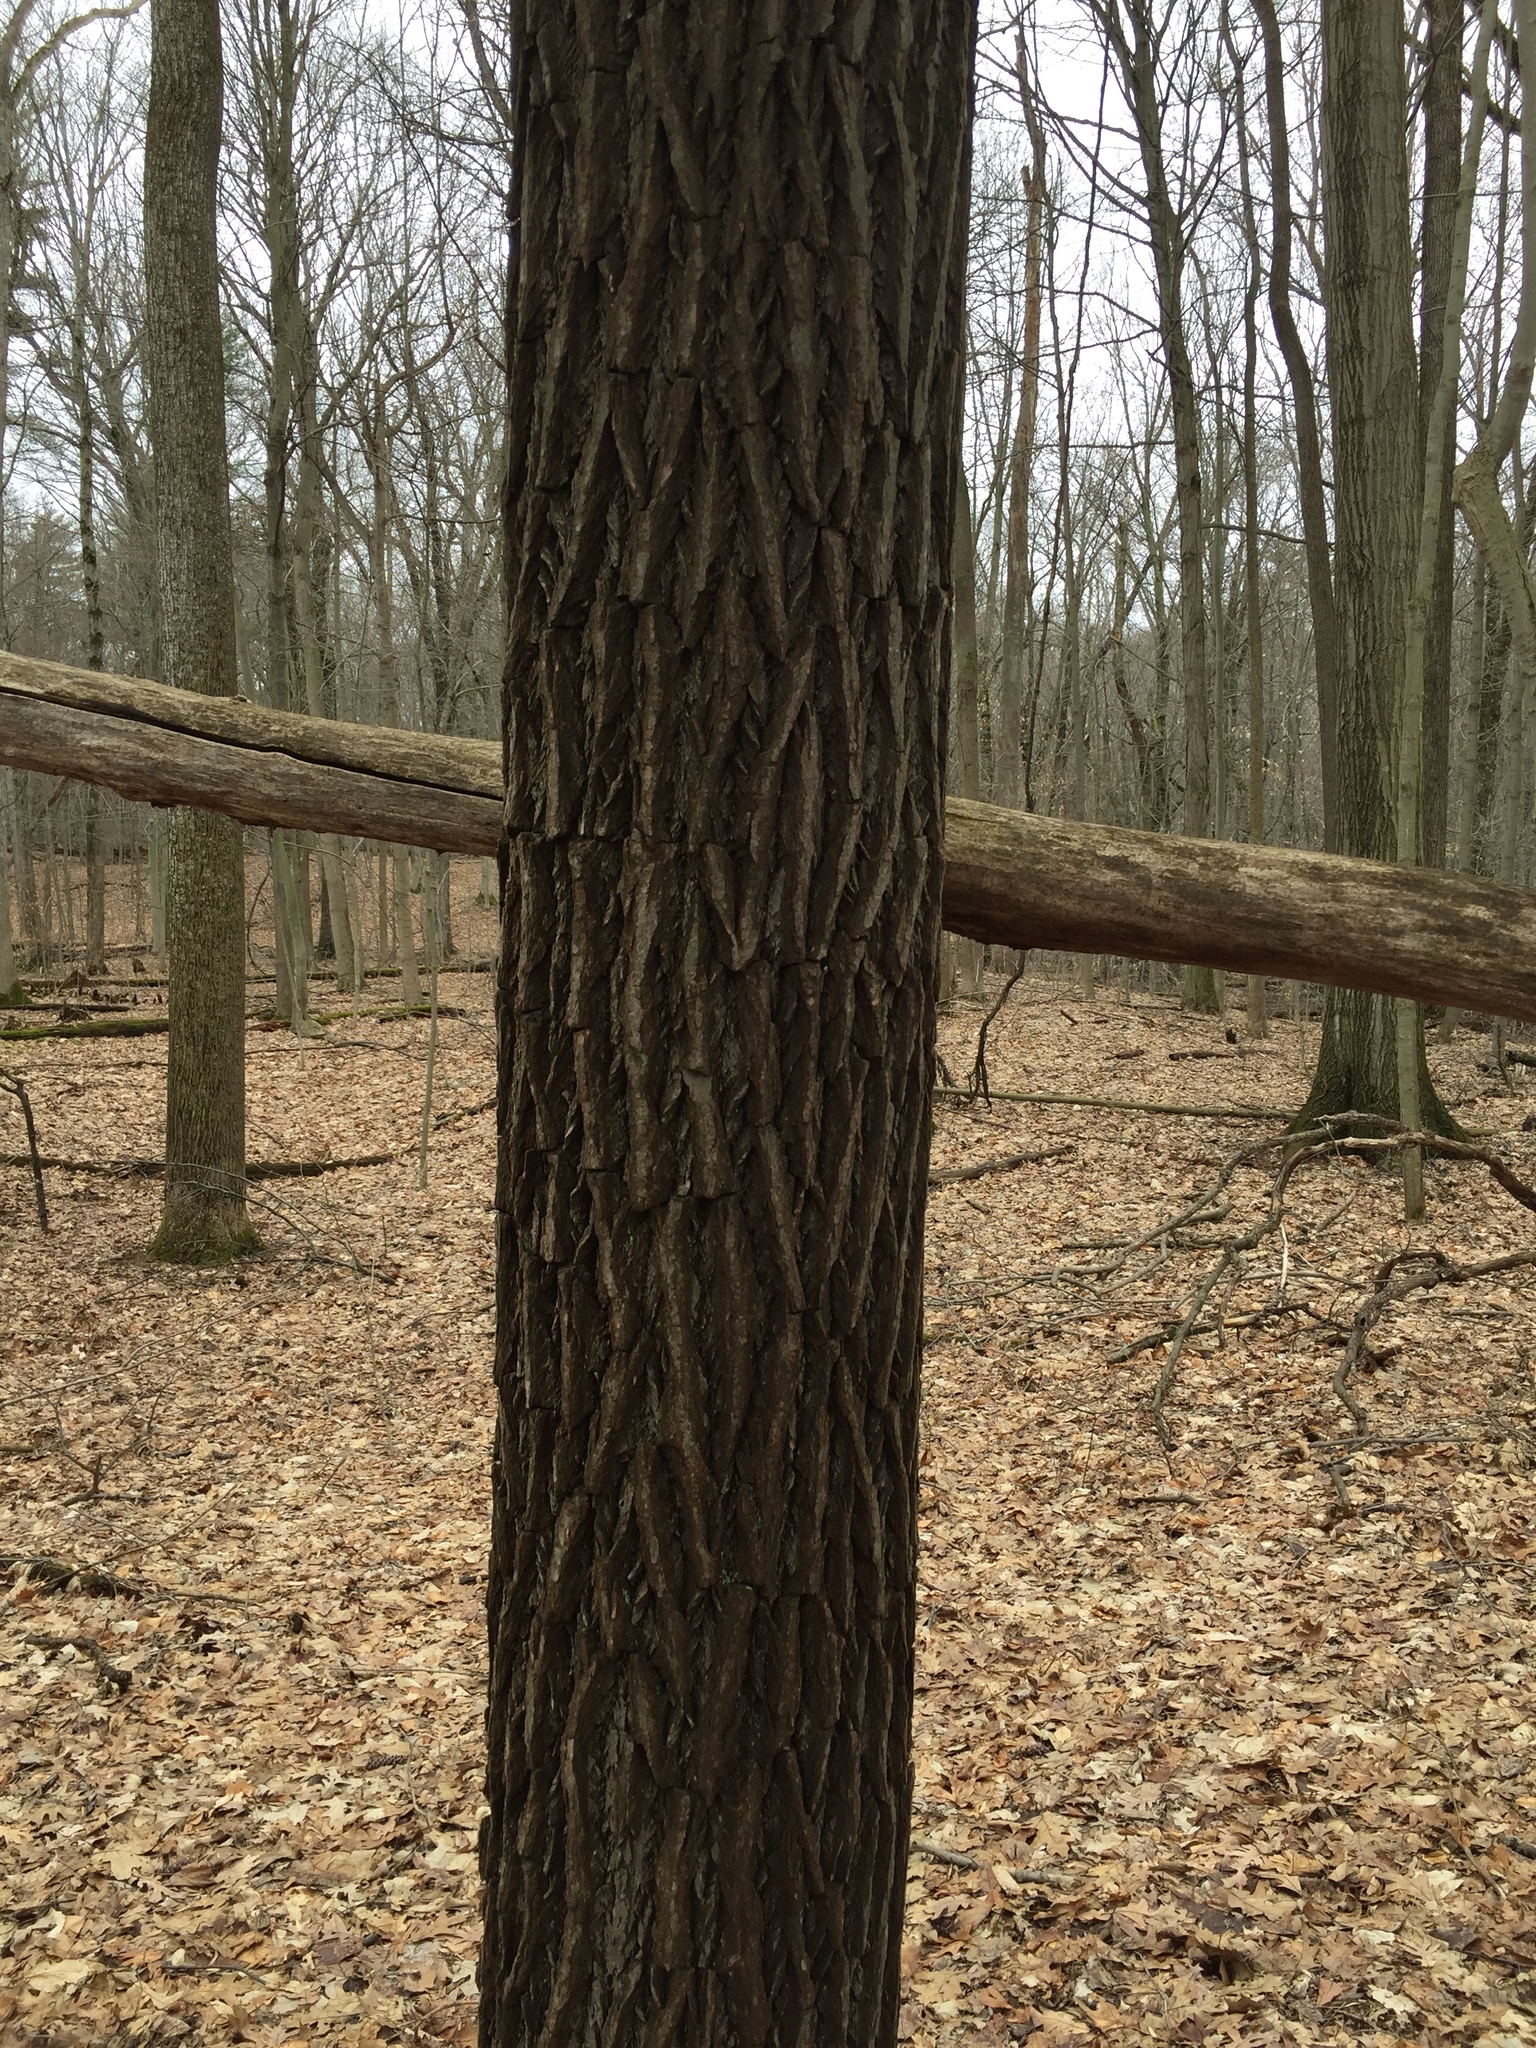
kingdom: Plantae
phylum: Tracheophyta
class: Magnoliopsida
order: Laurales
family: Lauraceae
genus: Sassafras
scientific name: Sassafras albidum
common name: Sassafras
